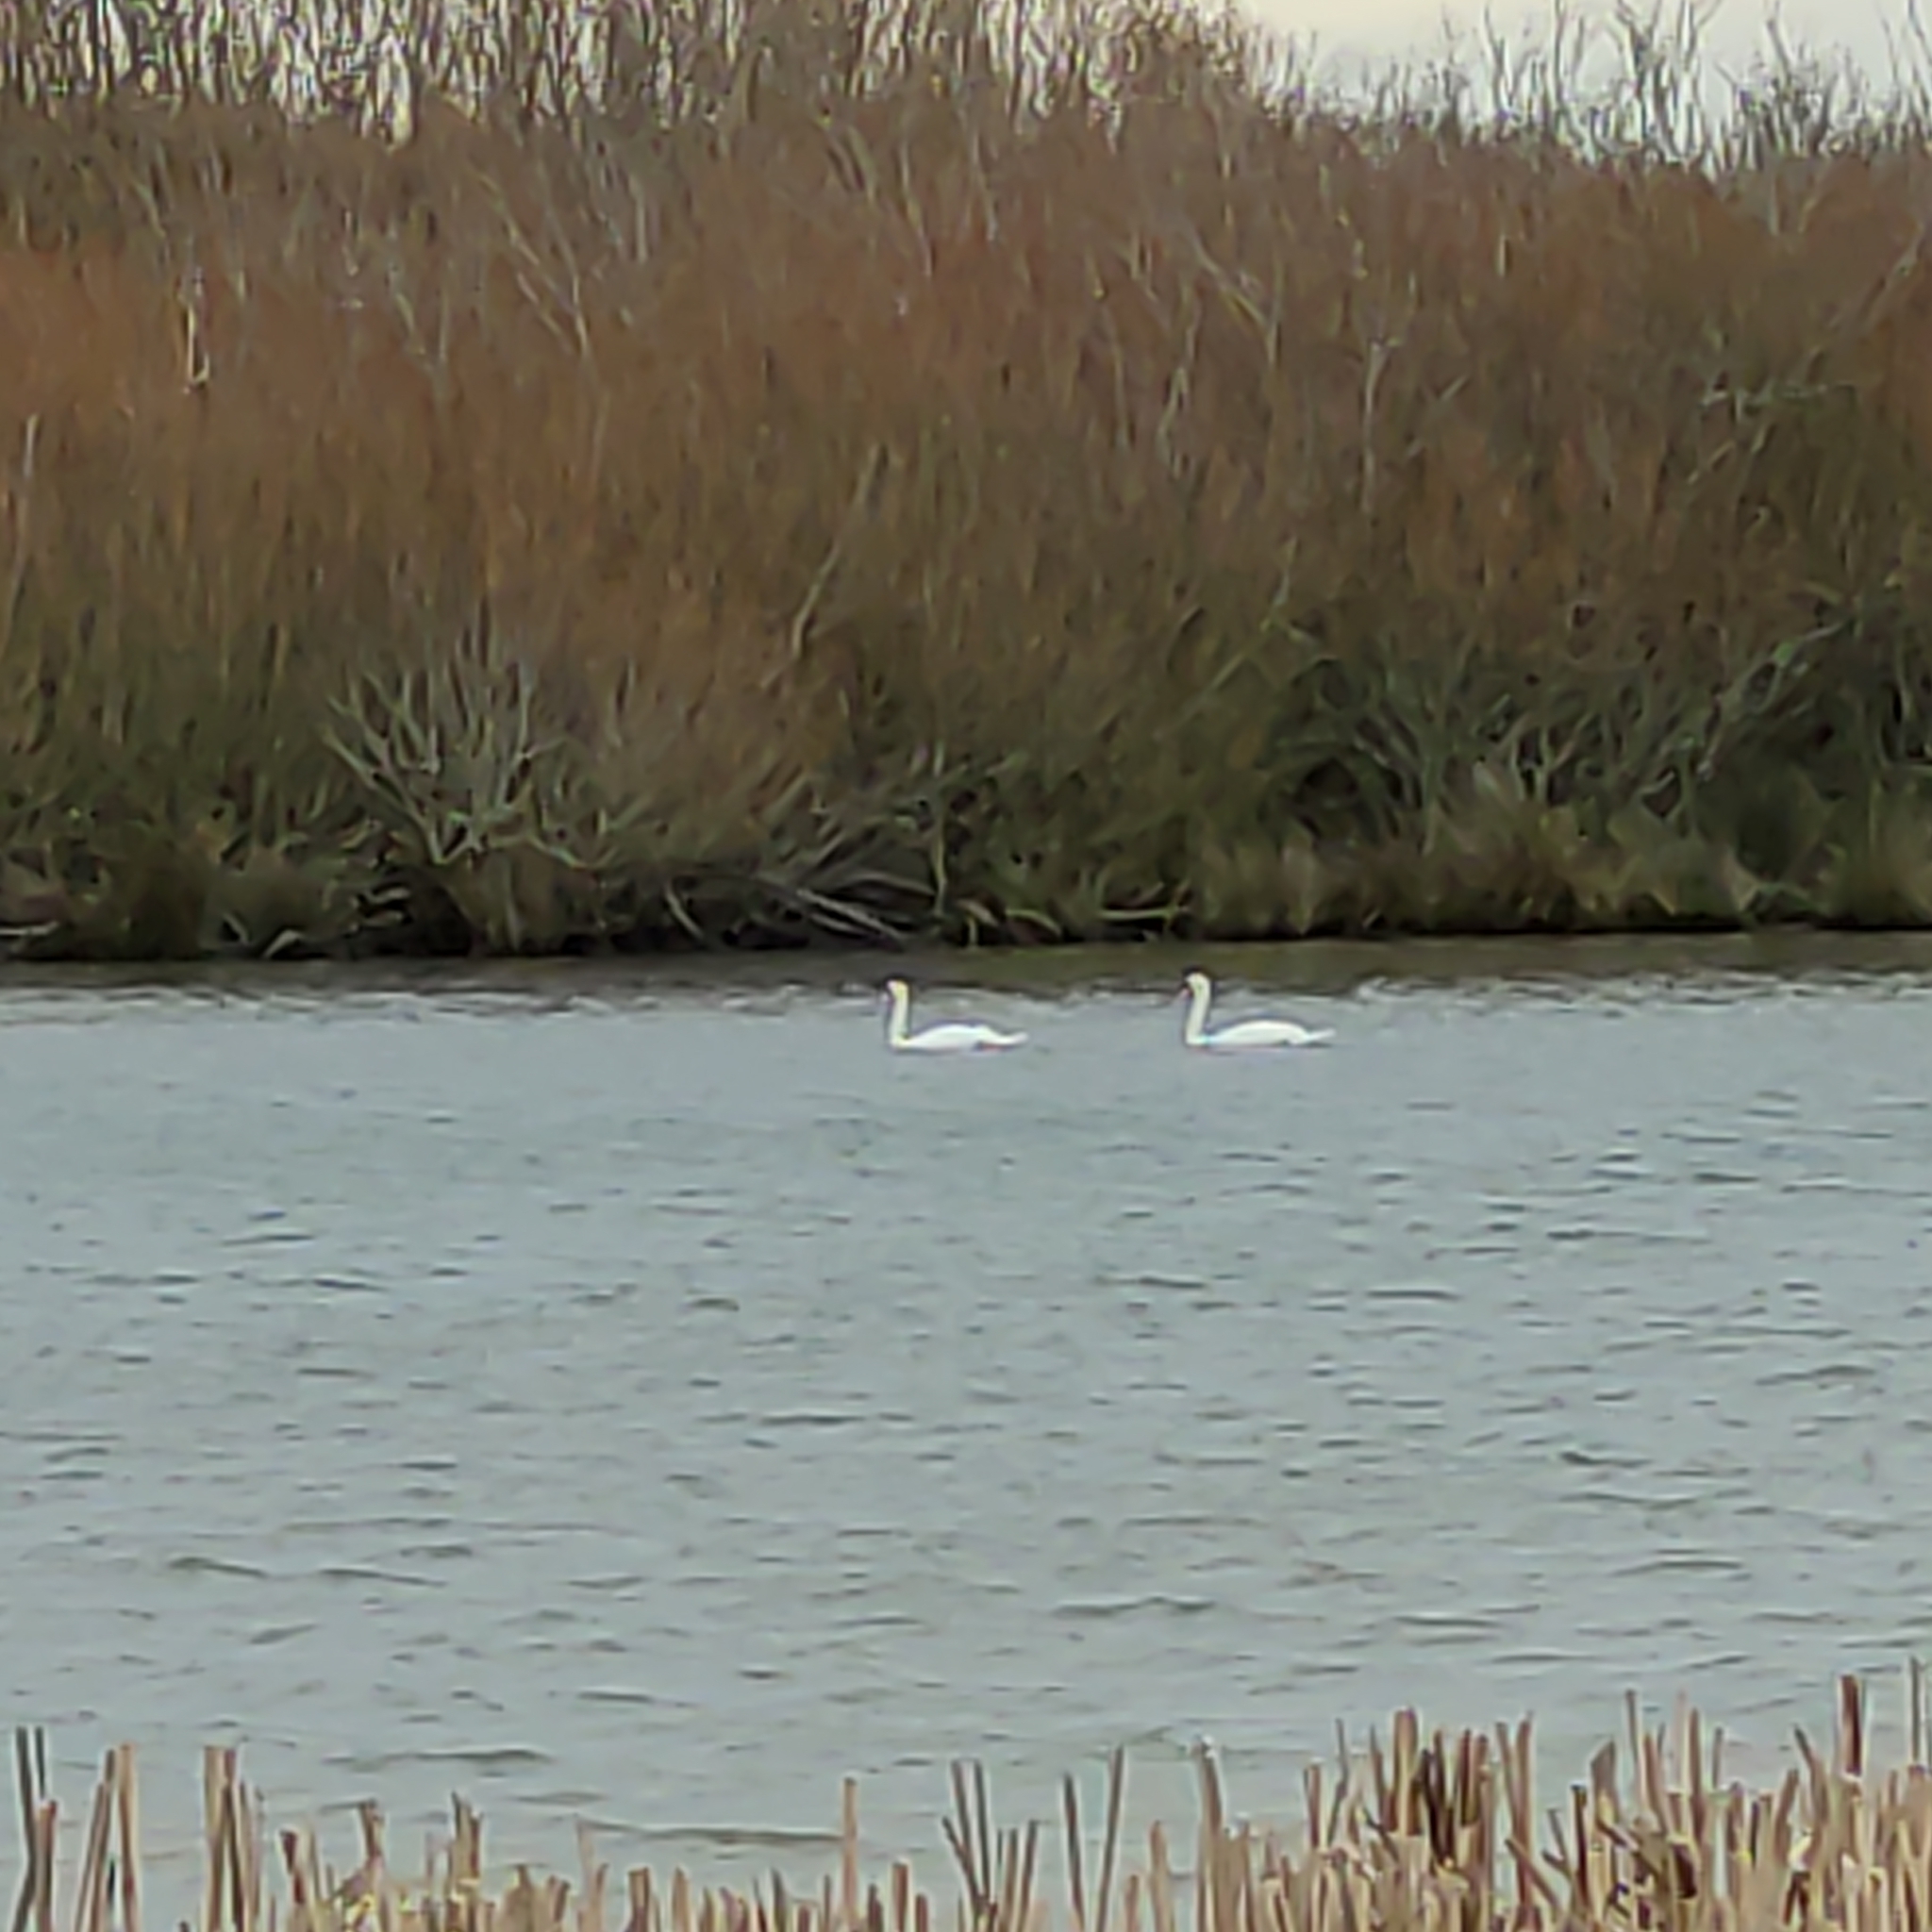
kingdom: Animalia
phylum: Chordata
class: Aves
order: Anseriformes
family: Anatidae
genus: Cygnus
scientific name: Cygnus olor
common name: Mute swan
